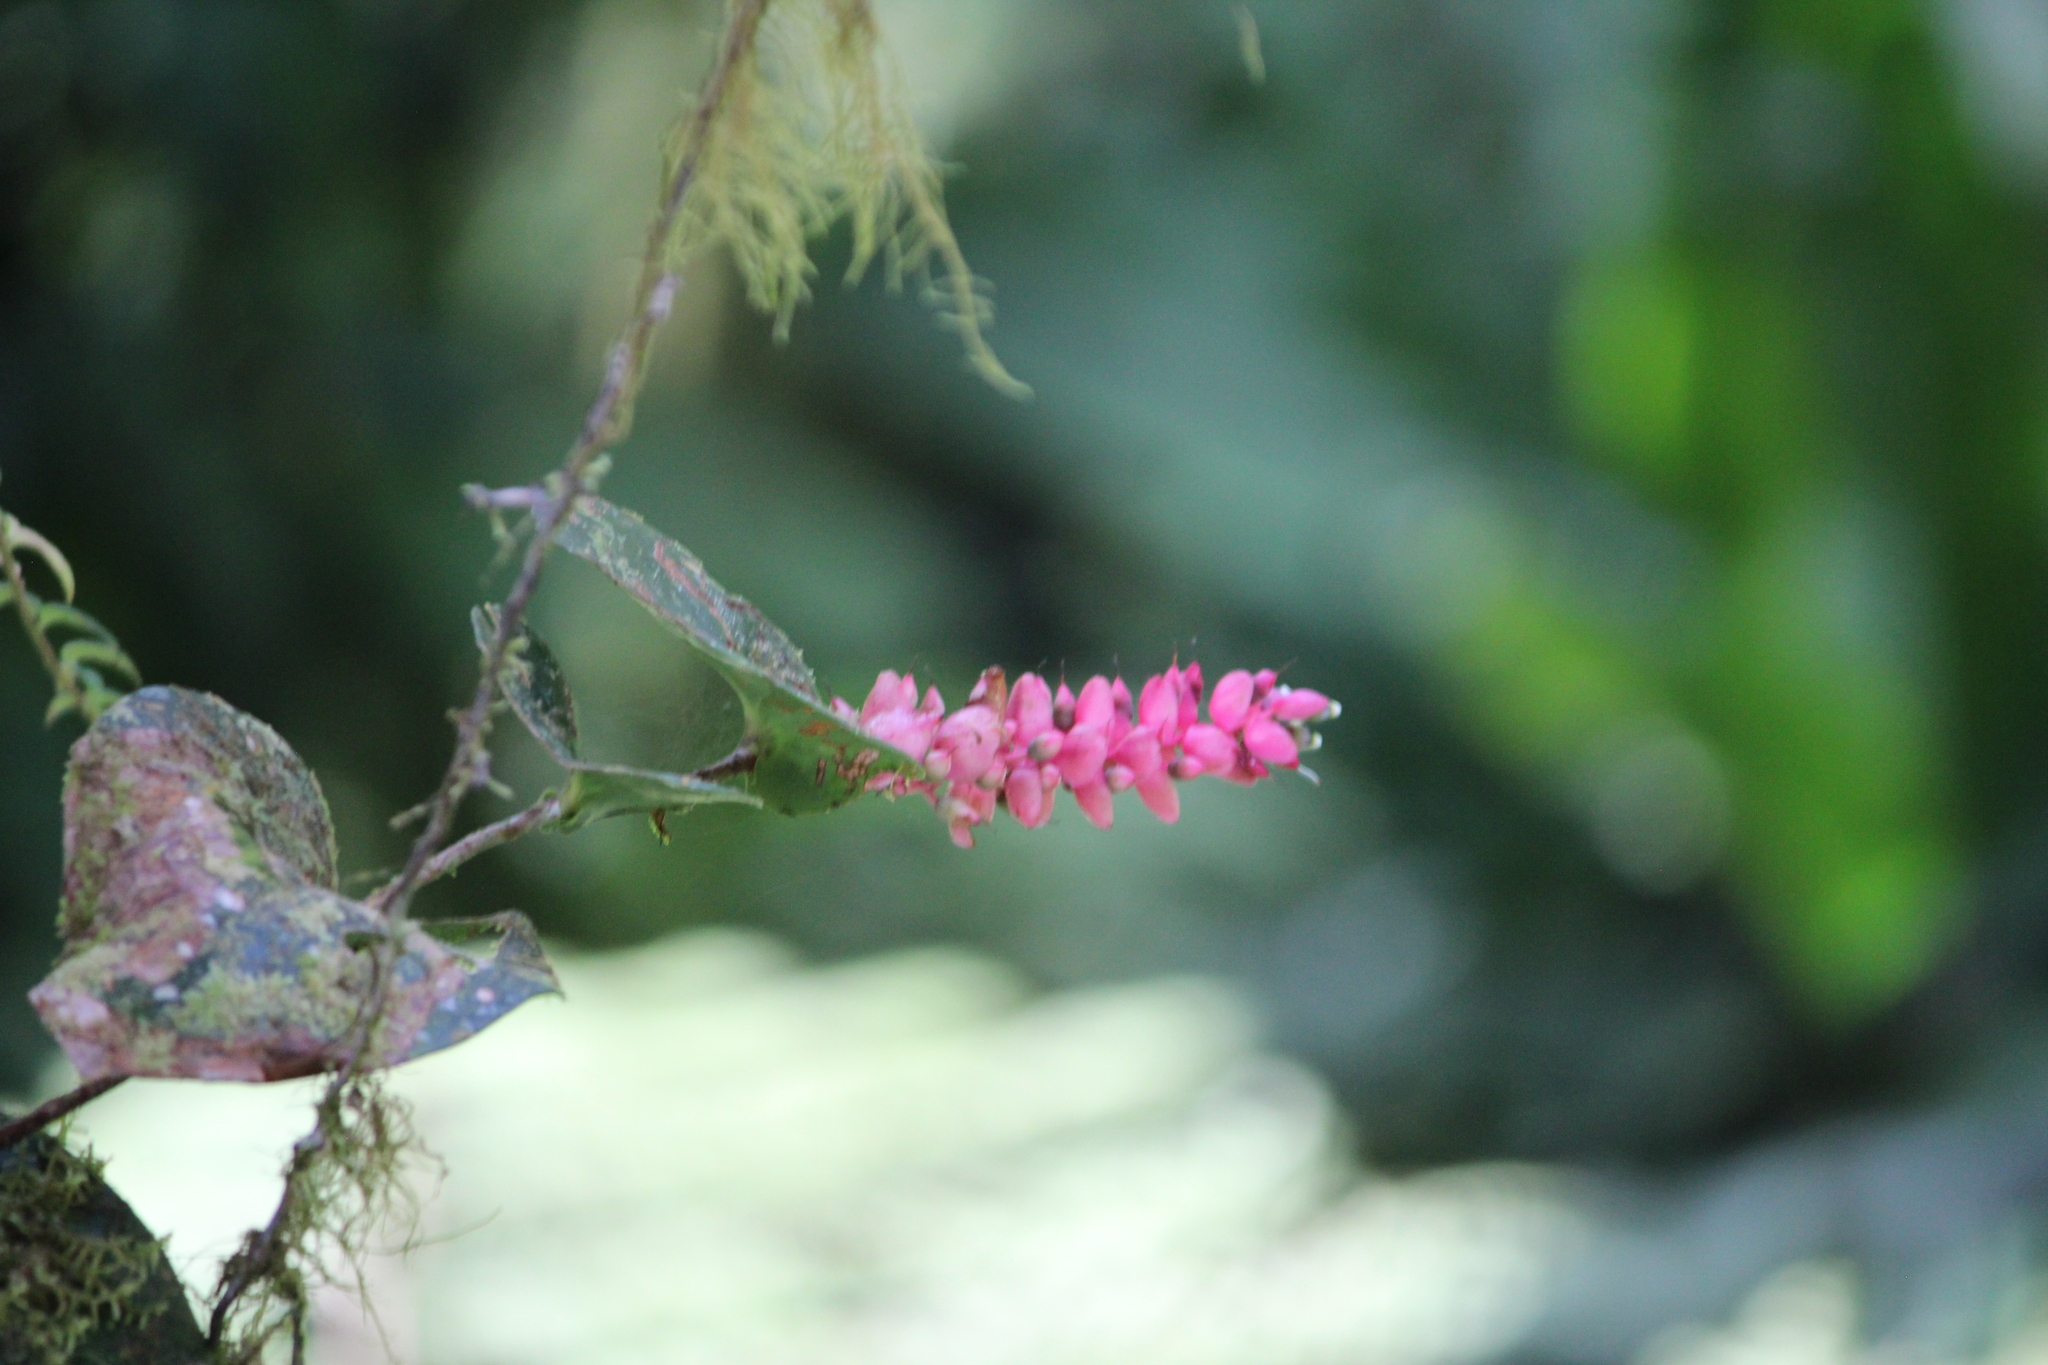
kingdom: Plantae
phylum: Tracheophyta
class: Magnoliopsida
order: Ericales
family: Ericaceae
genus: Cavendishia
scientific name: Cavendishia complectens
